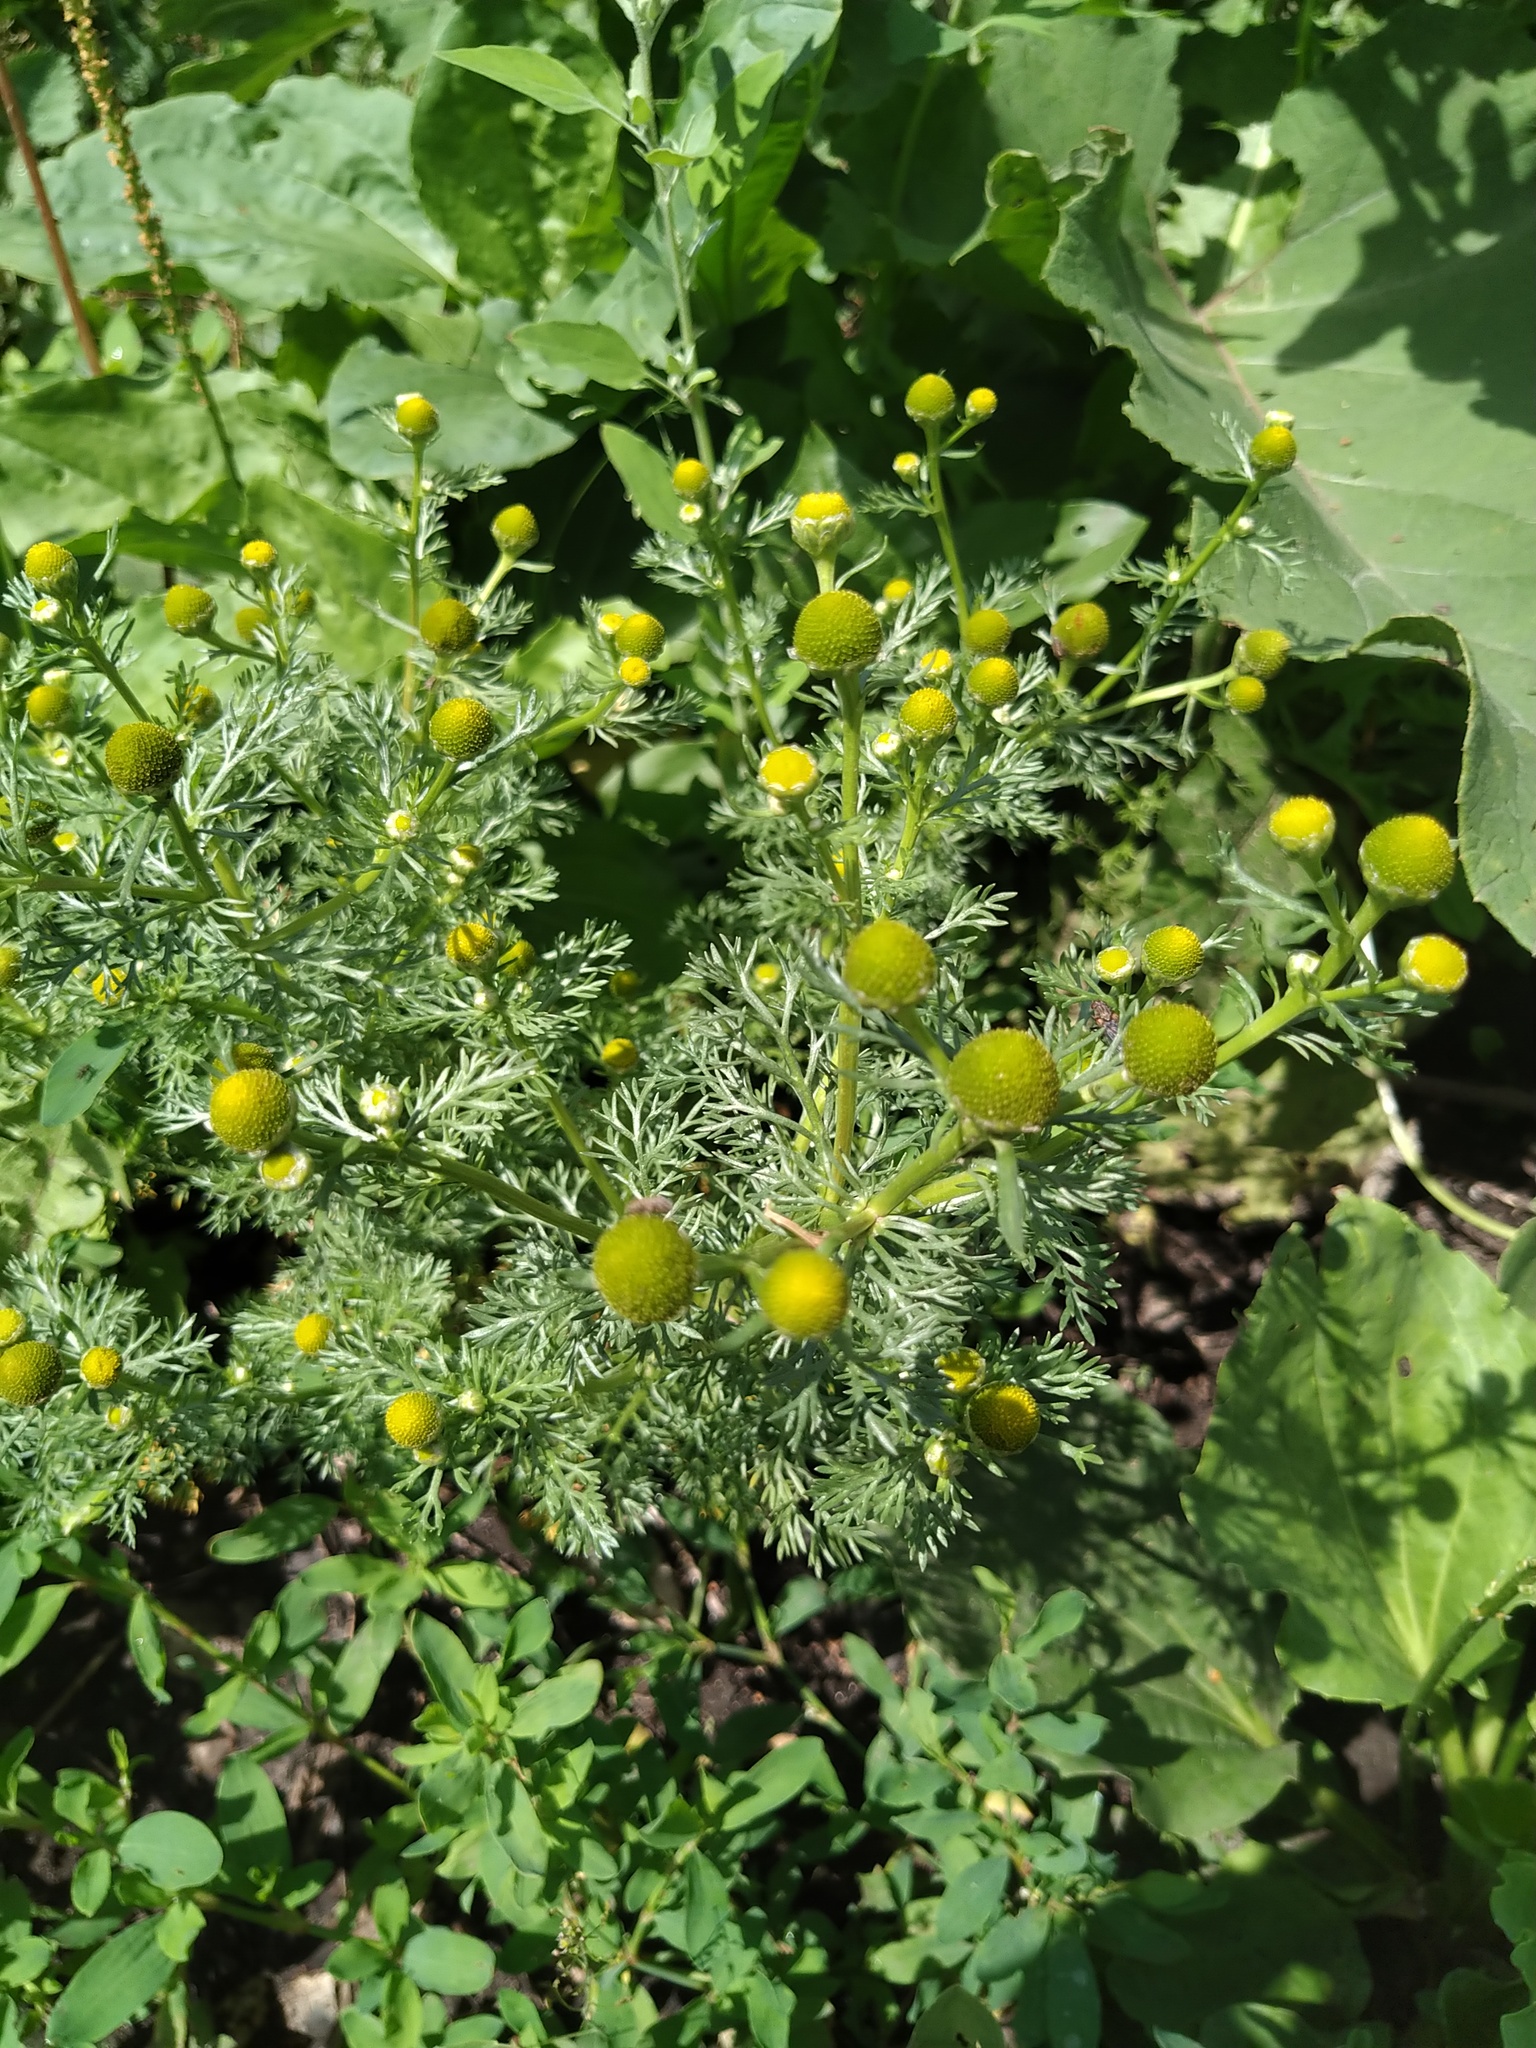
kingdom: Plantae
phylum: Tracheophyta
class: Magnoliopsida
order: Asterales
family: Asteraceae
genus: Matricaria
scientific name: Matricaria discoidea
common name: Disc mayweed
